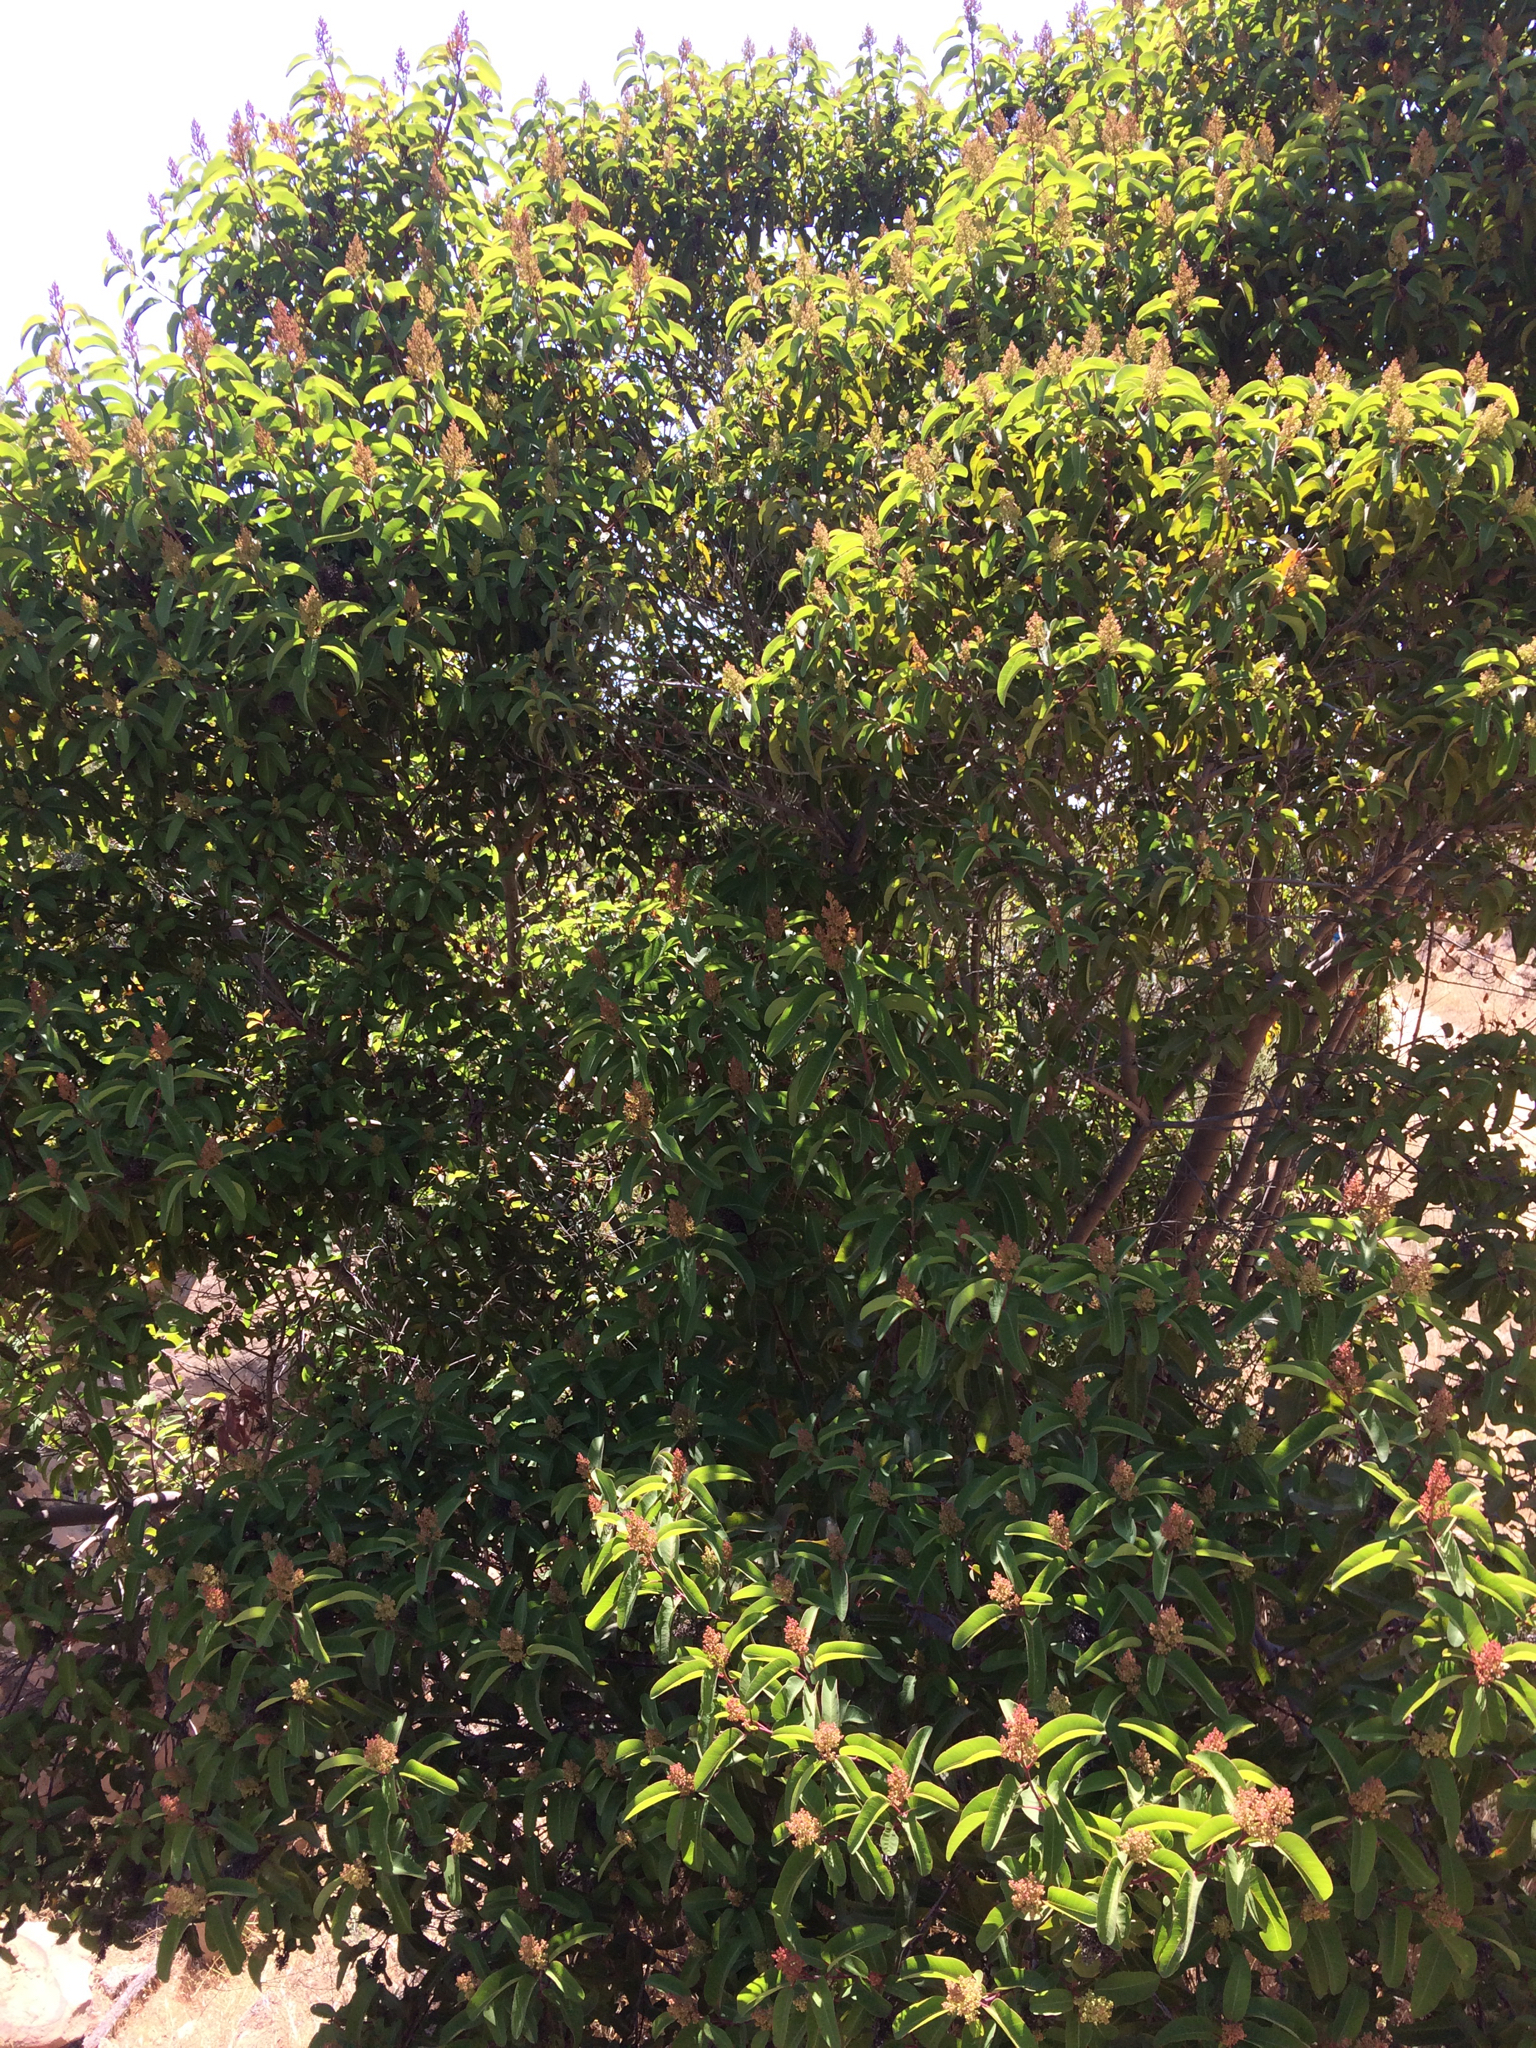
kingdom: Plantae
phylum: Tracheophyta
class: Magnoliopsida
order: Sapindales
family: Anacardiaceae
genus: Malosma
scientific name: Malosma laurina
